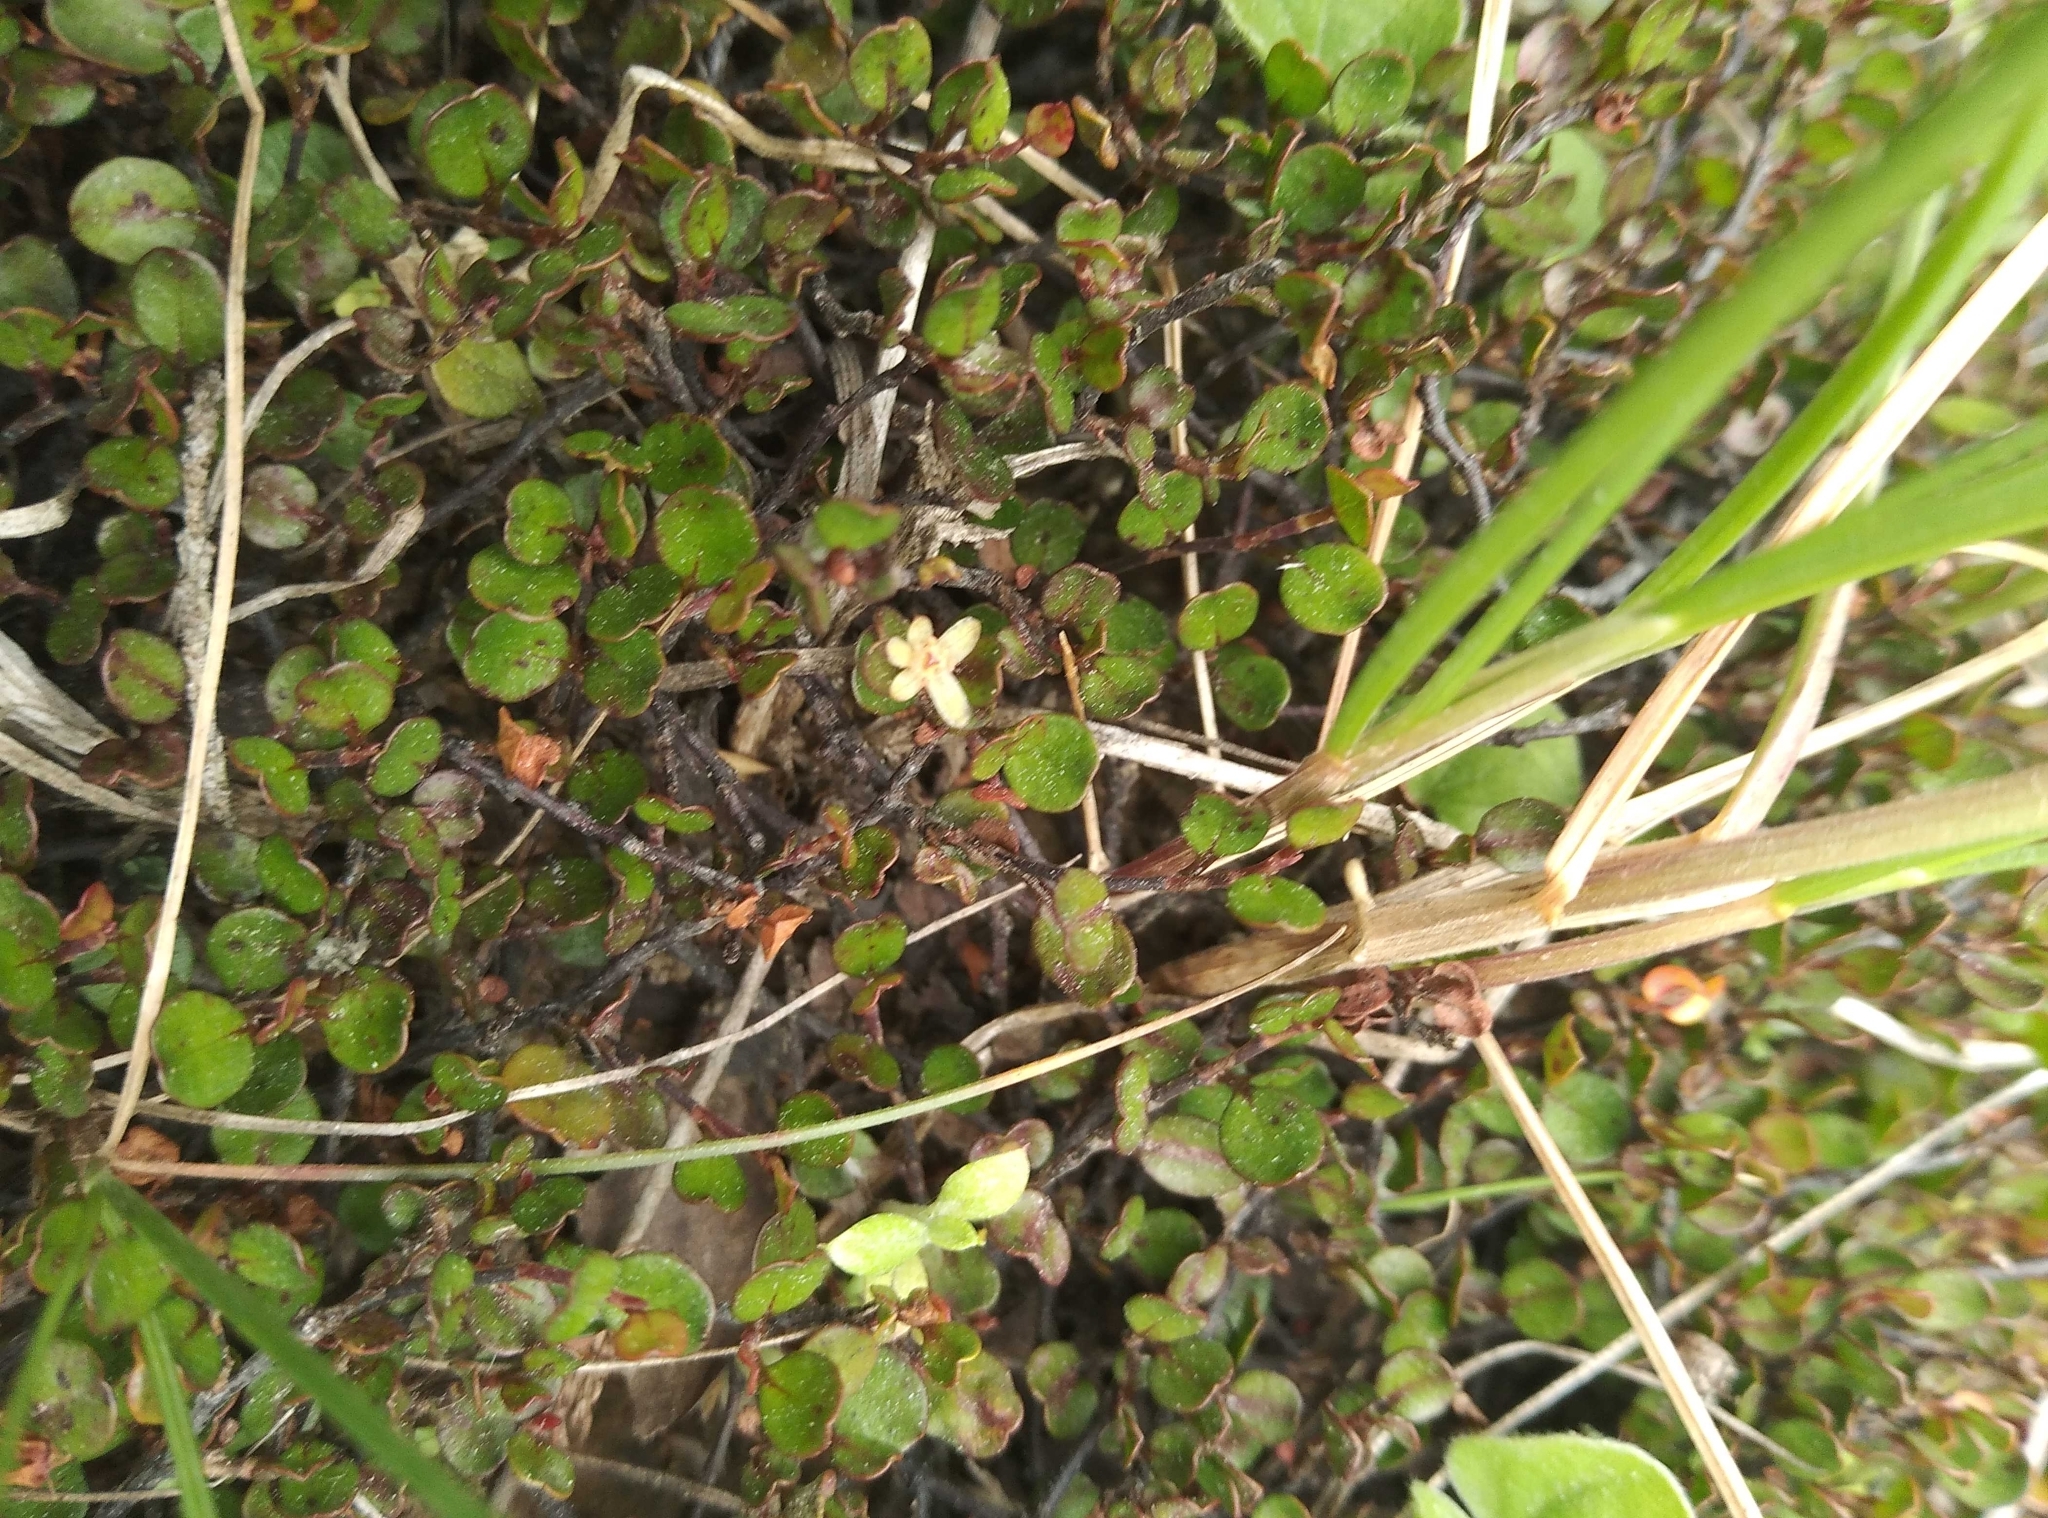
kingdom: Plantae
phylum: Tracheophyta
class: Magnoliopsida
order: Caryophyllales
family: Polygonaceae
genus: Muehlenbeckia
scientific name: Muehlenbeckia axillaris
